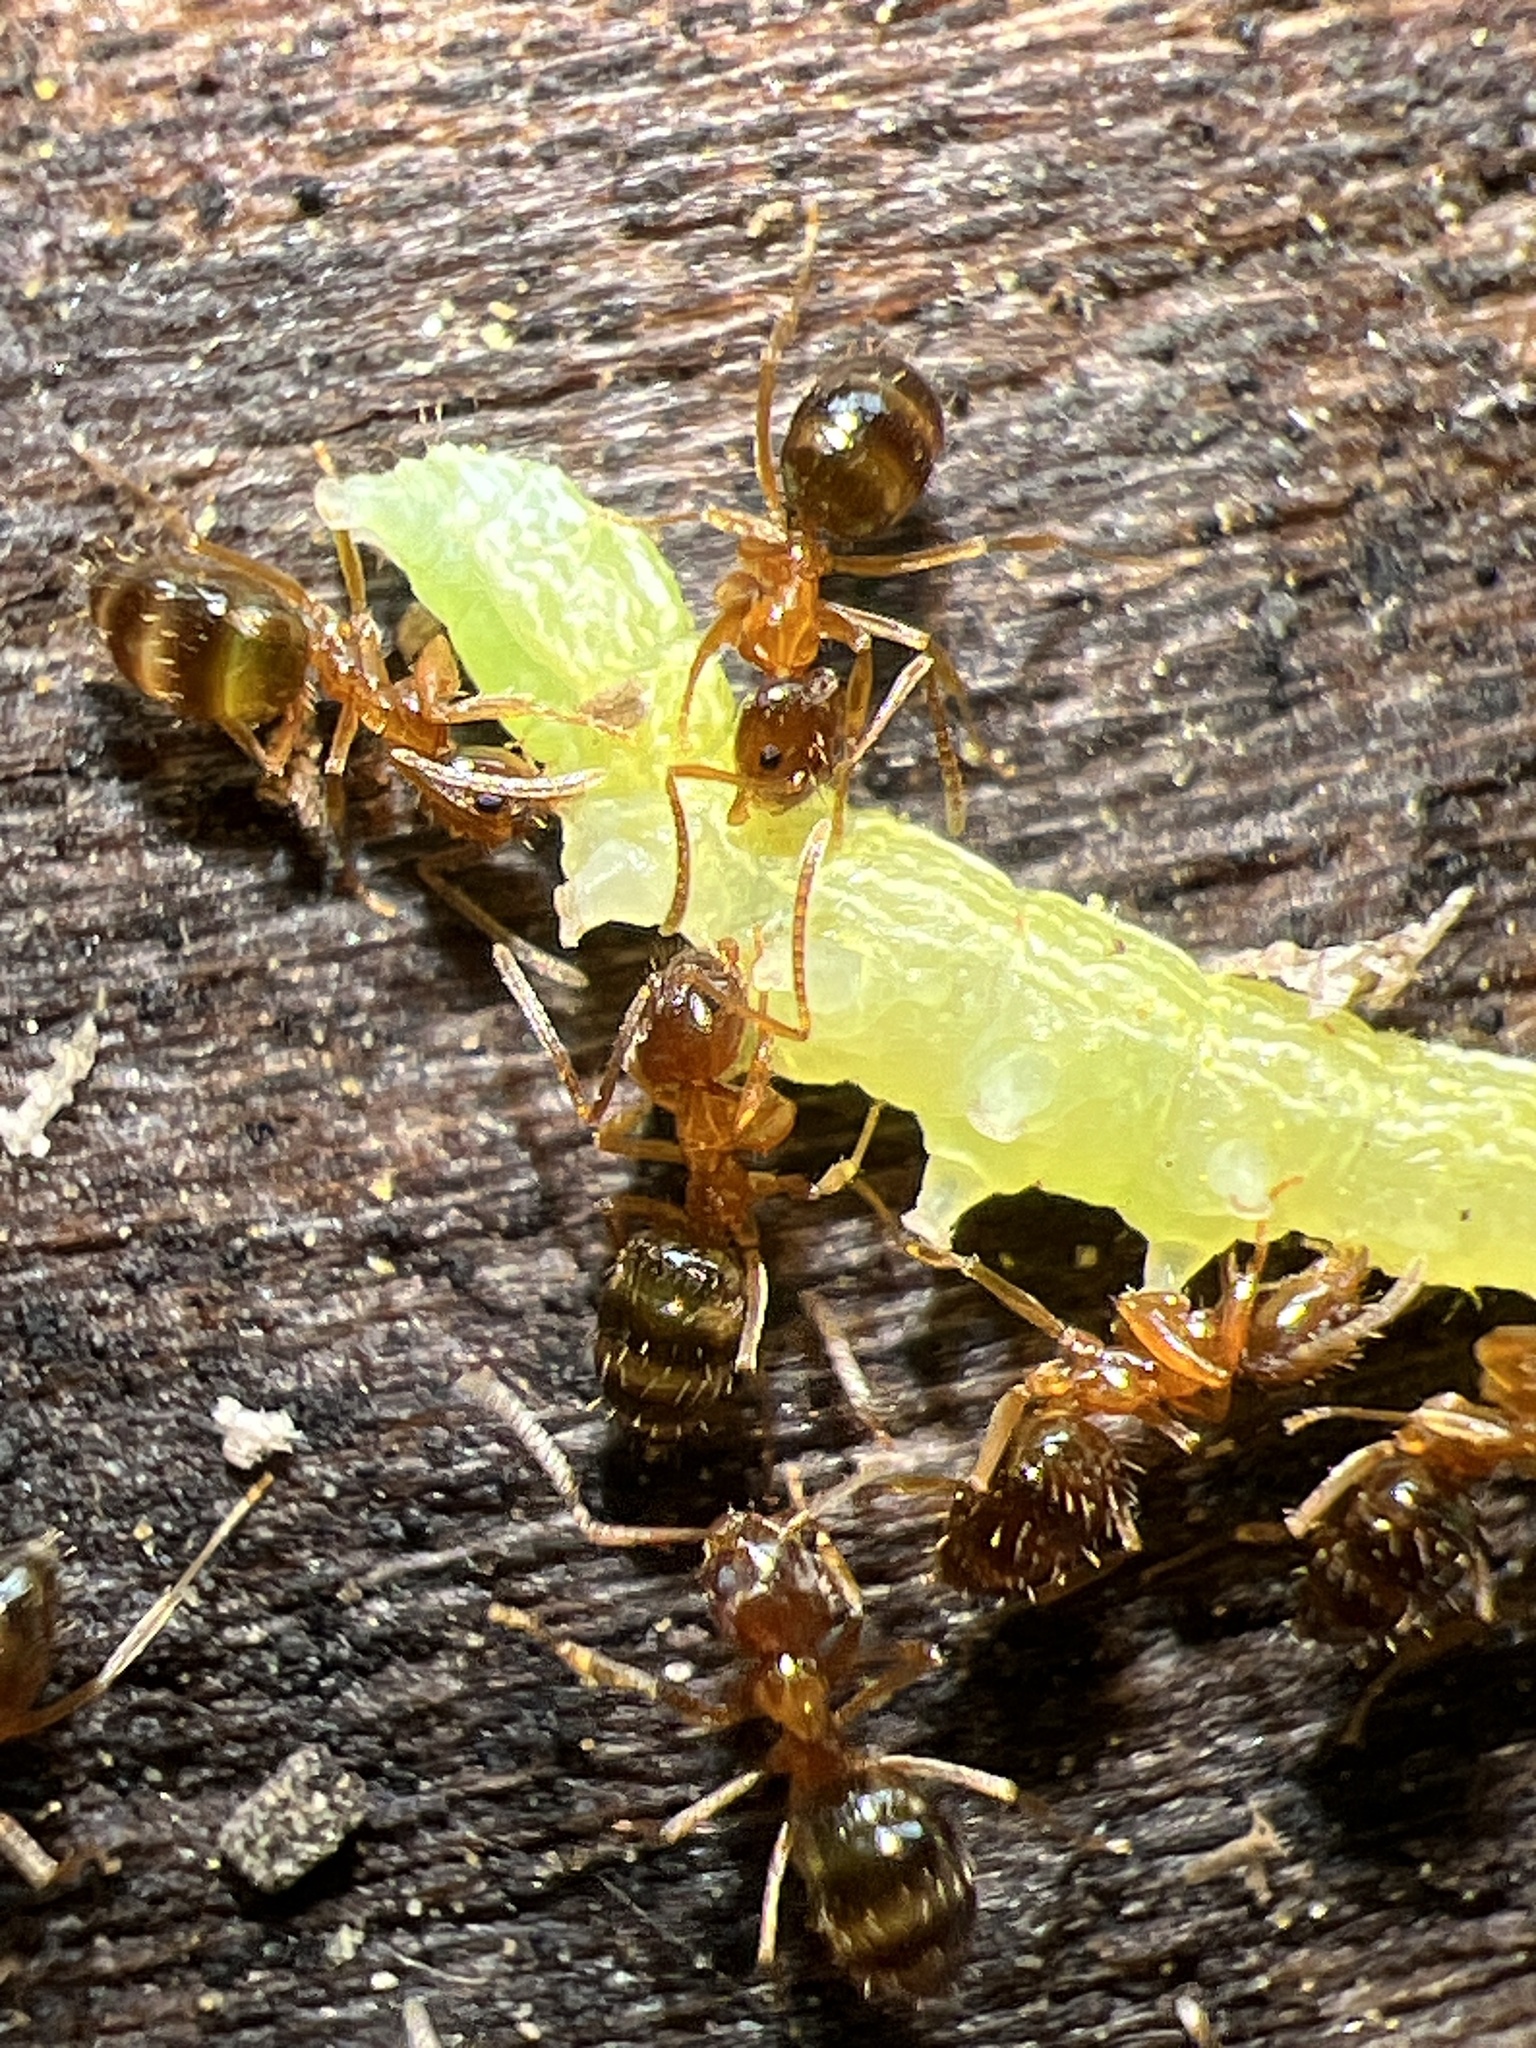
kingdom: Animalia
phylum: Arthropoda
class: Insecta
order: Hymenoptera
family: Formicidae
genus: Paratrechina
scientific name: Paratrechina flavipes
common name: Eastern asian formicine ant
